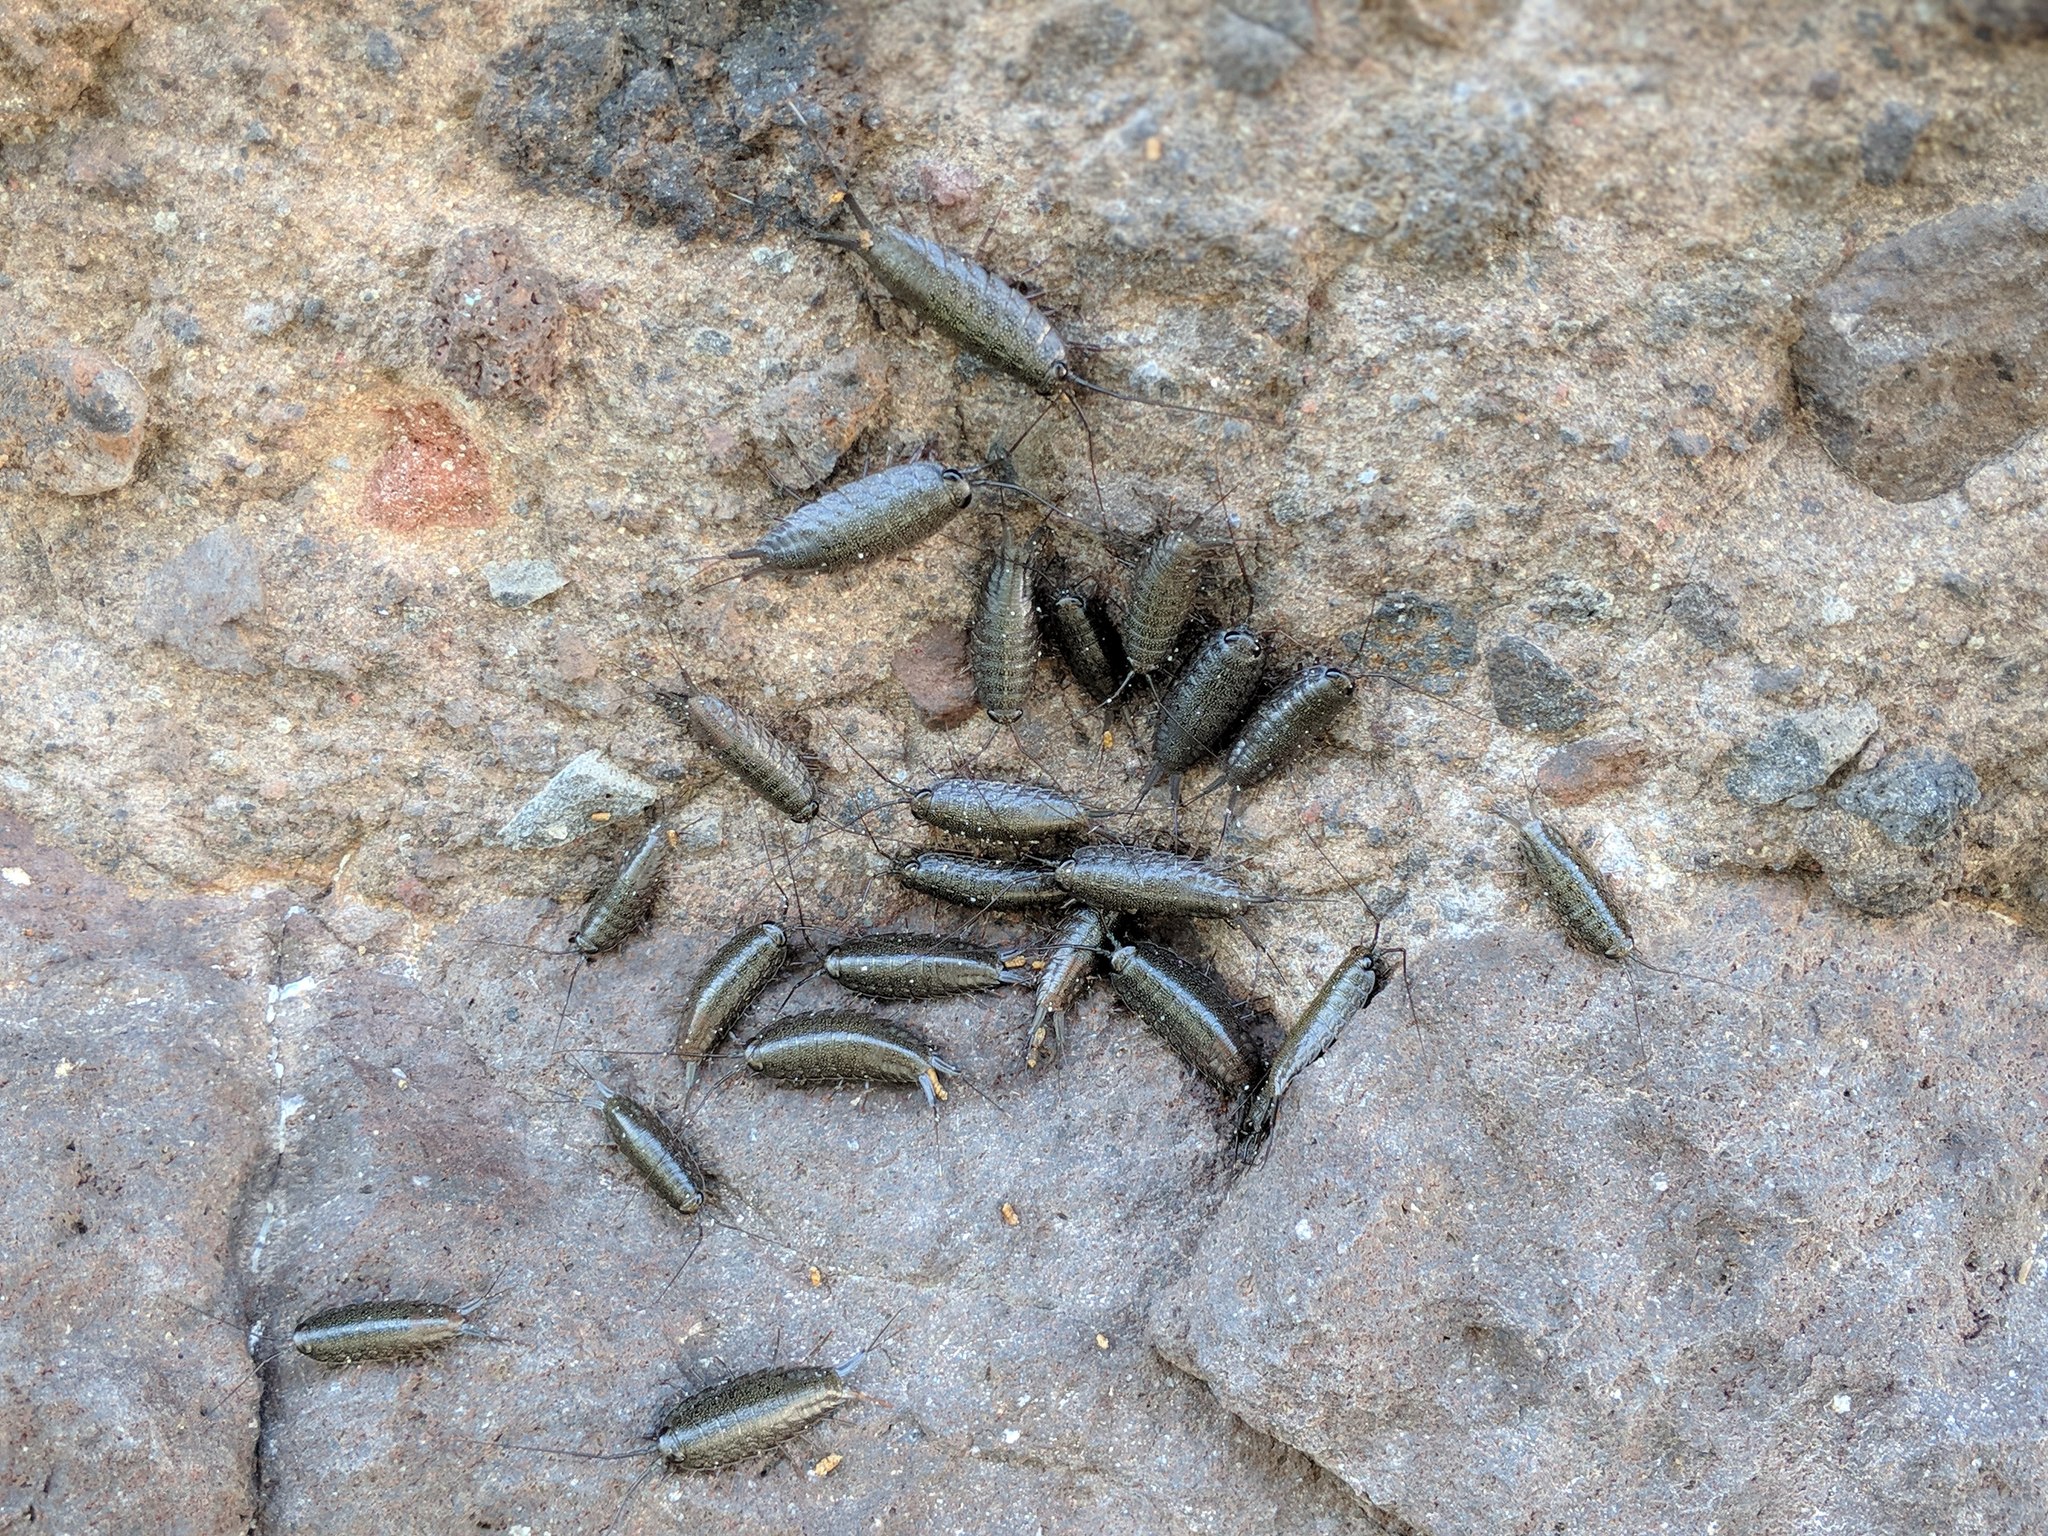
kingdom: Animalia
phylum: Arthropoda
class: Malacostraca
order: Isopoda
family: Ligiidae
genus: Ligia
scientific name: Ligia occidentalis
